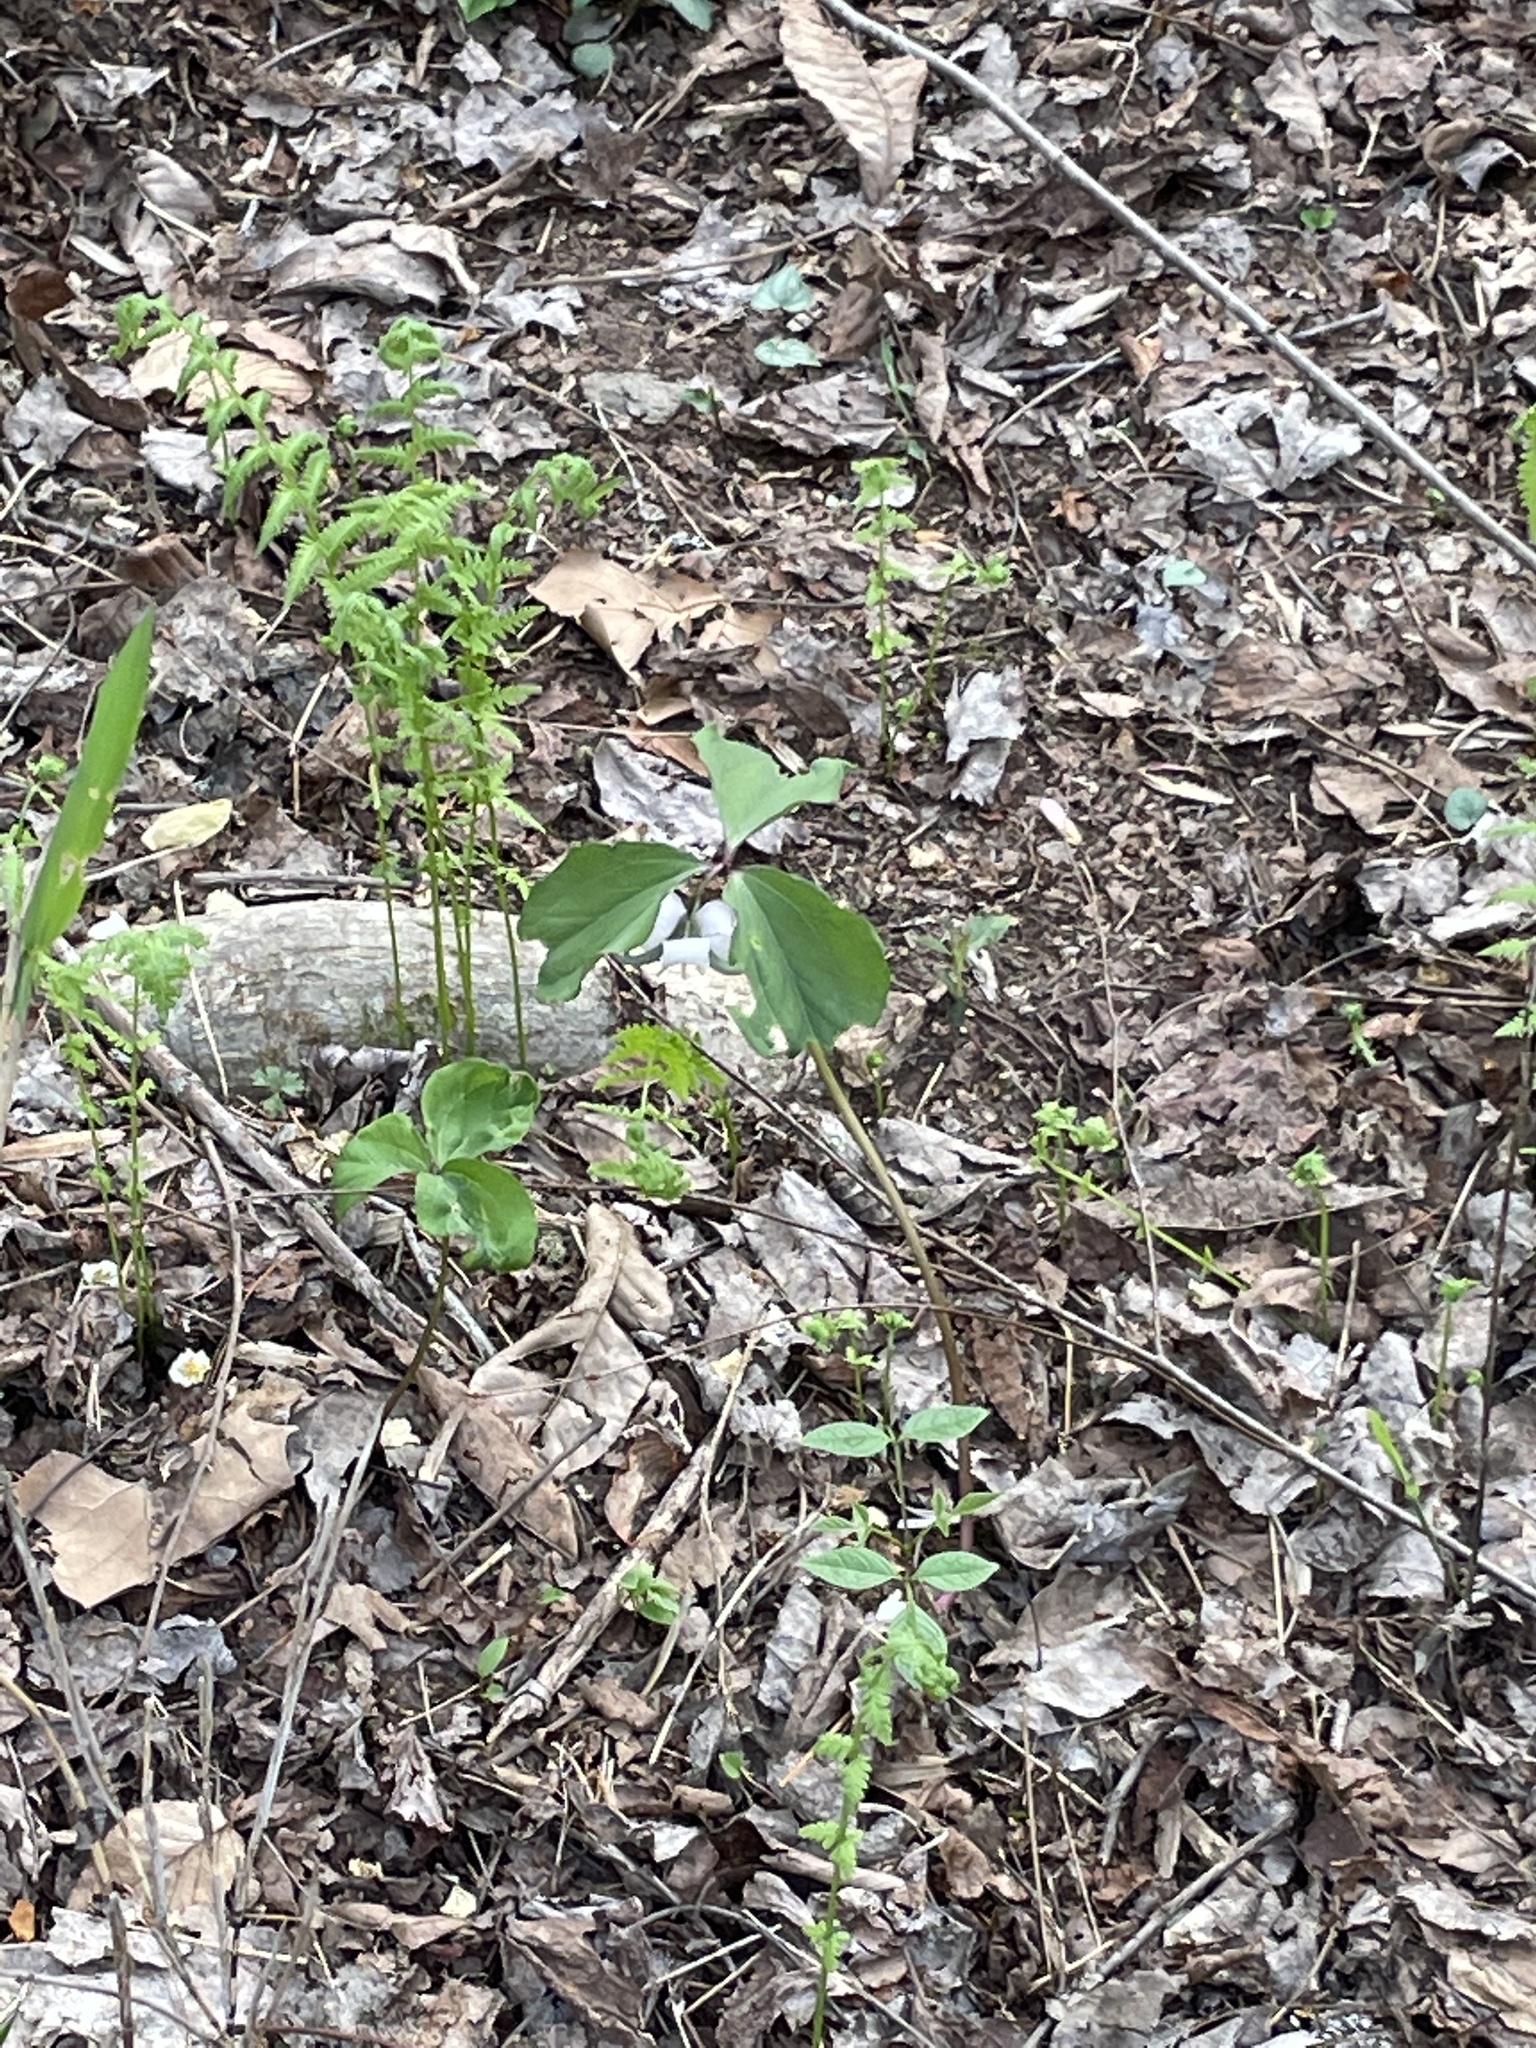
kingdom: Plantae
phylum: Tracheophyta
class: Liliopsida
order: Liliales
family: Melanthiaceae
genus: Trillium
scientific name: Trillium catesbaei
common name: Bashful trillium
